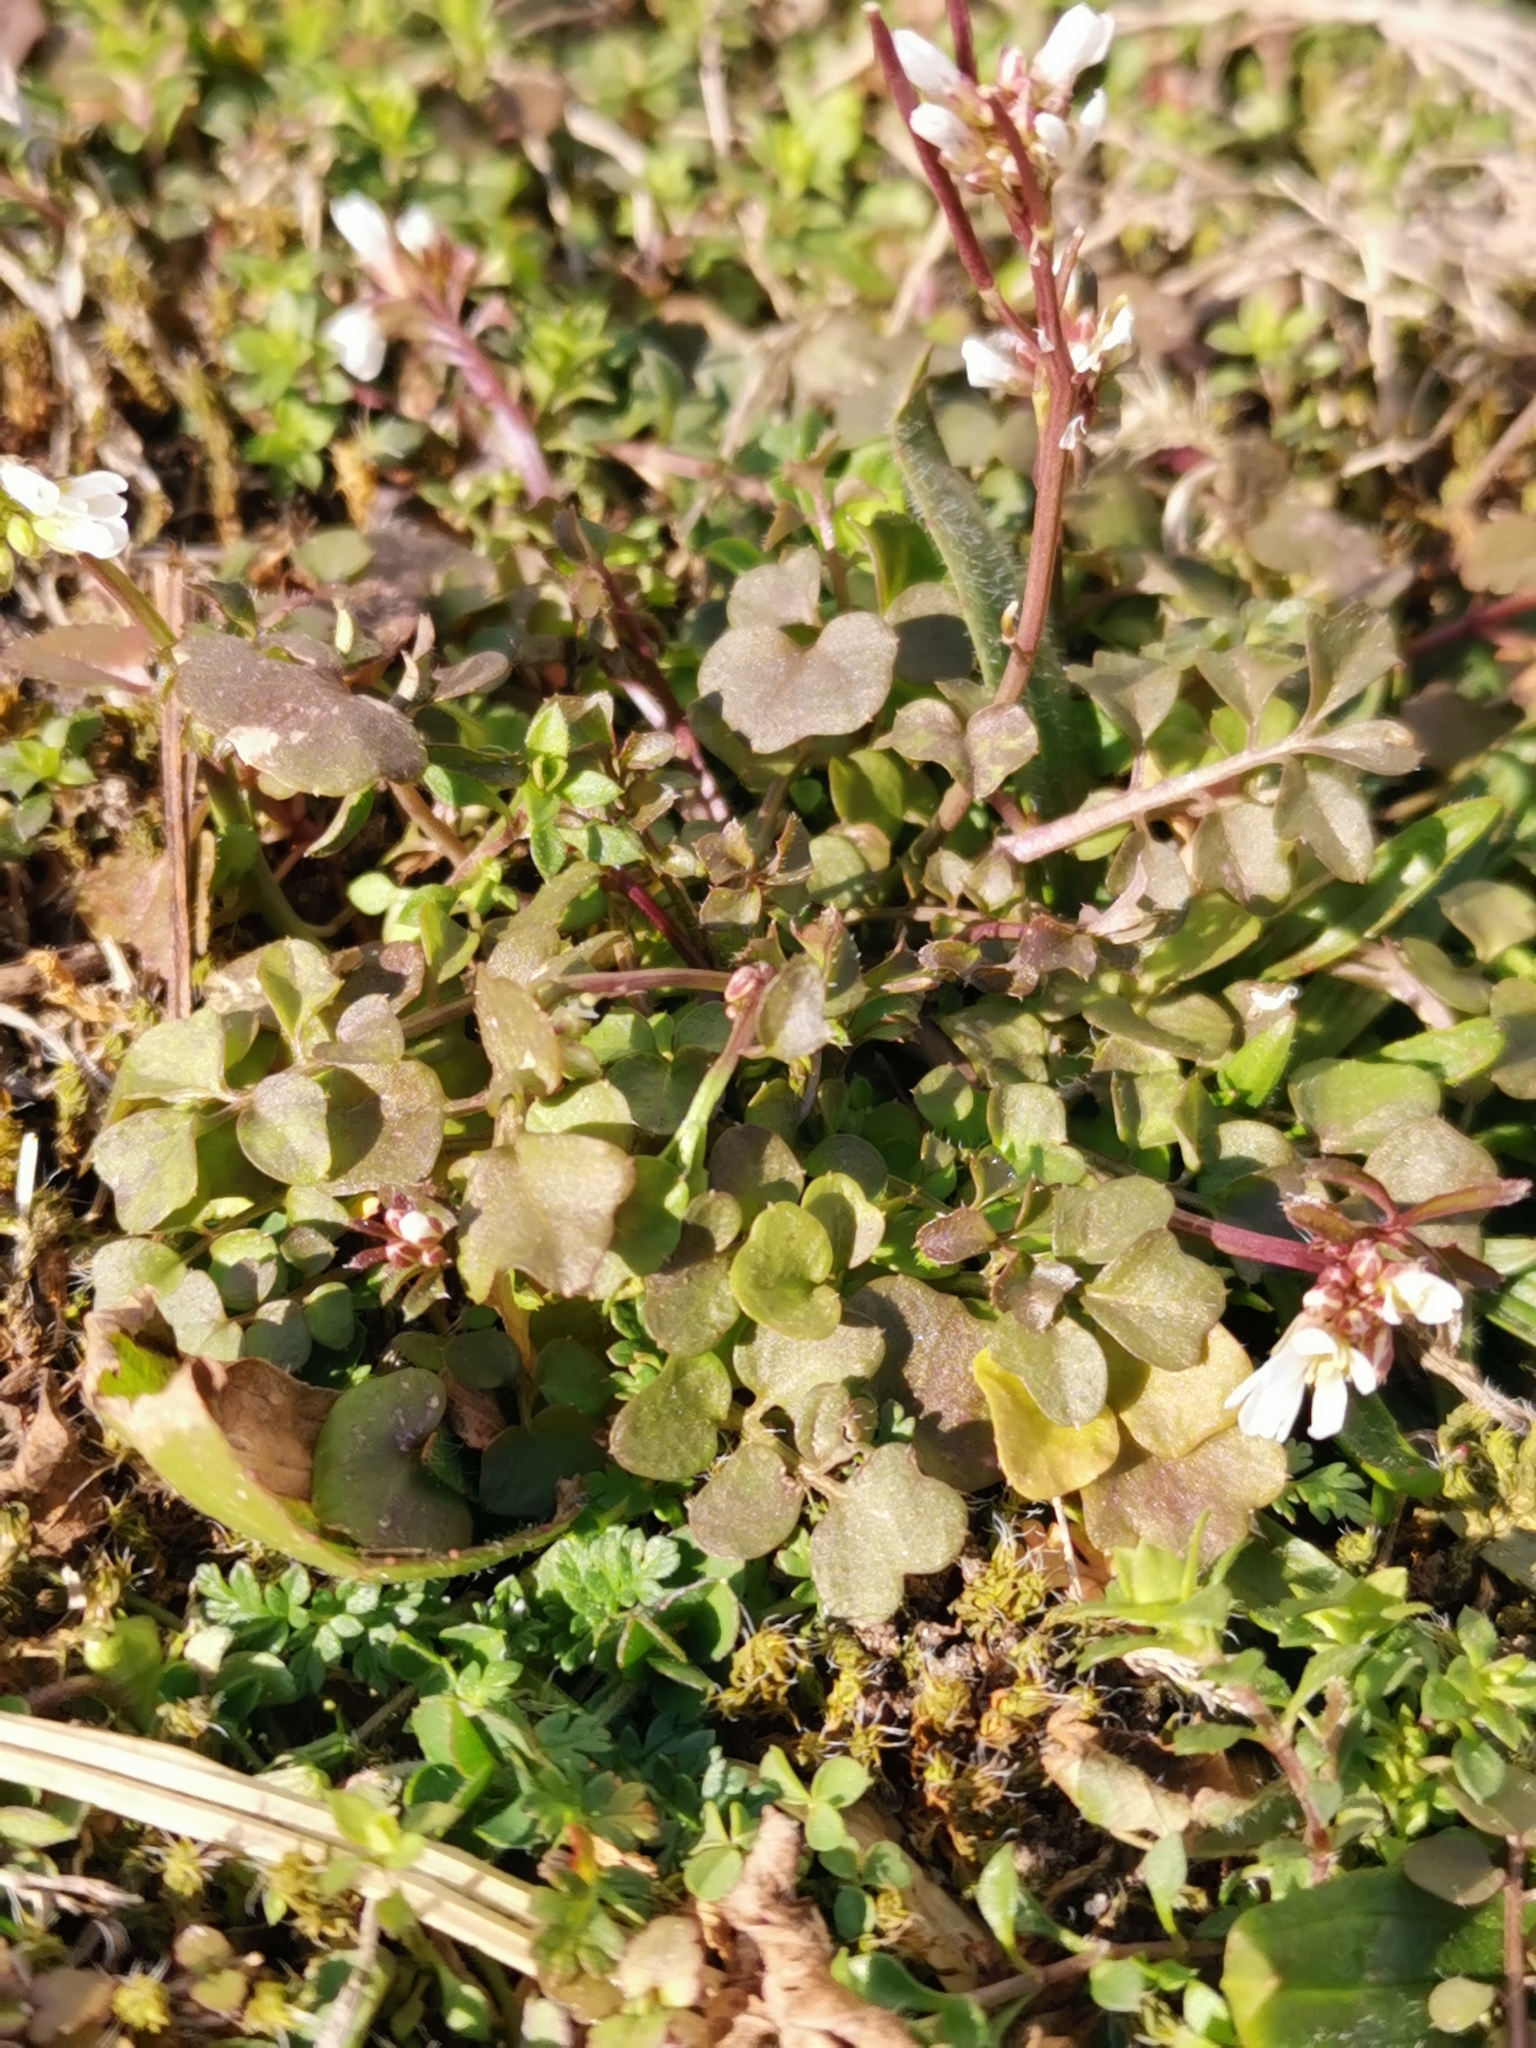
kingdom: Plantae
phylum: Tracheophyta
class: Magnoliopsida
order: Brassicales
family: Brassicaceae
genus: Cardamine
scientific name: Cardamine hirsuta
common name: Hairy bittercress
